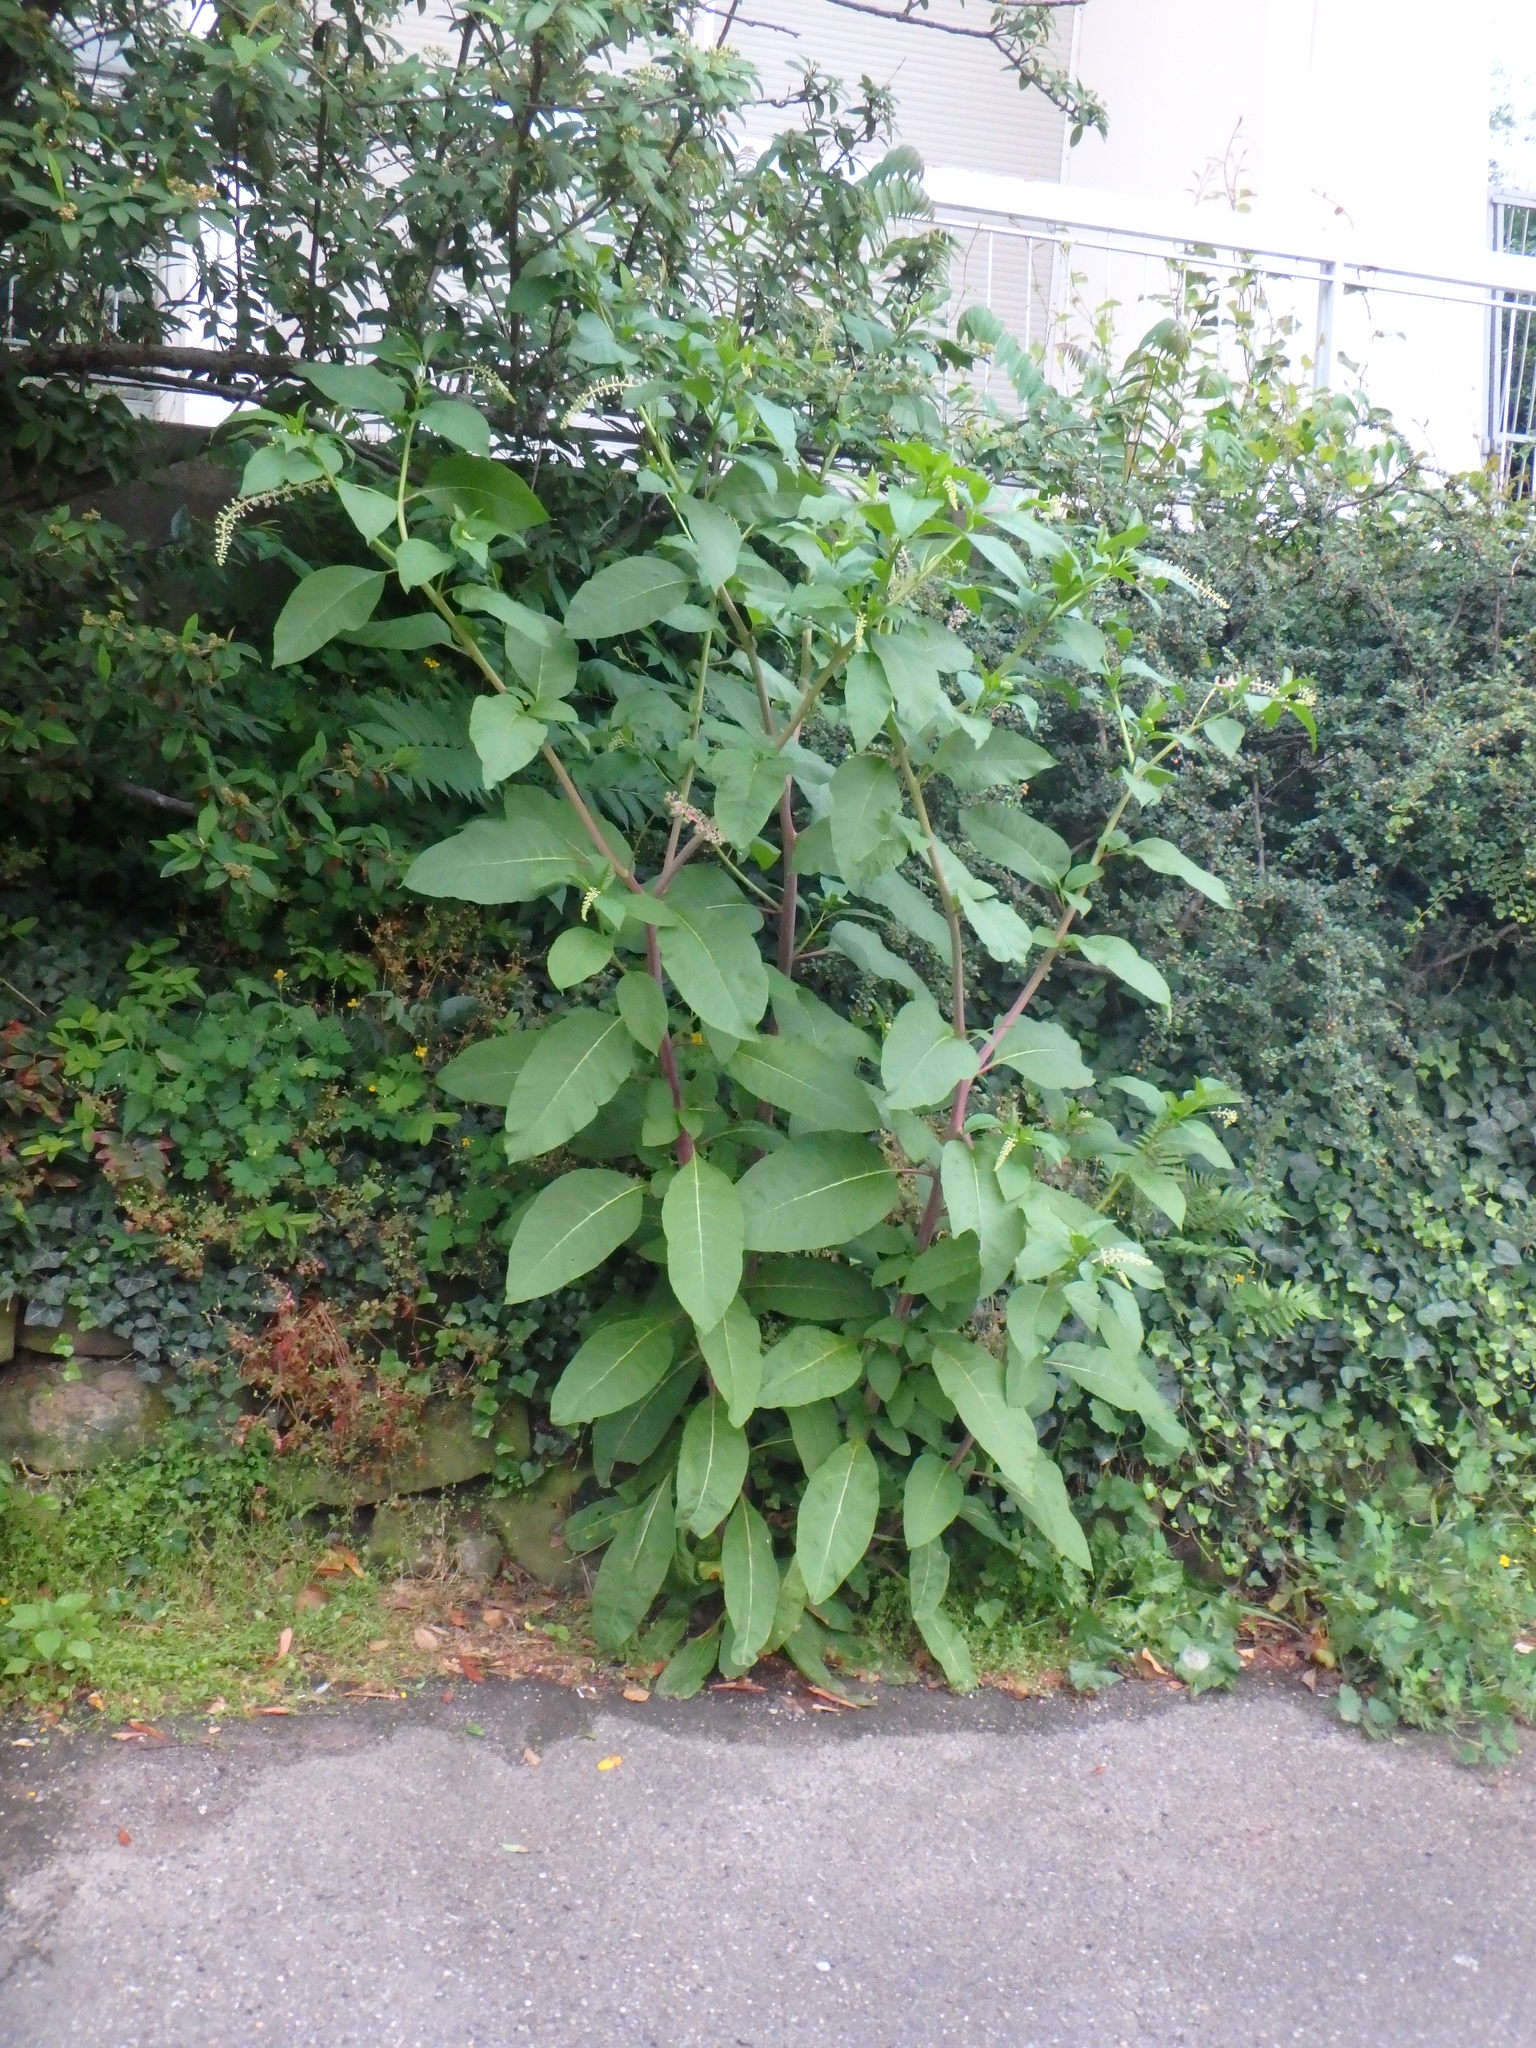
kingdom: Plantae
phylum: Tracheophyta
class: Magnoliopsida
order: Caryophyllales
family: Phytolaccaceae
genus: Phytolacca
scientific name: Phytolacca americana
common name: American pokeweed
